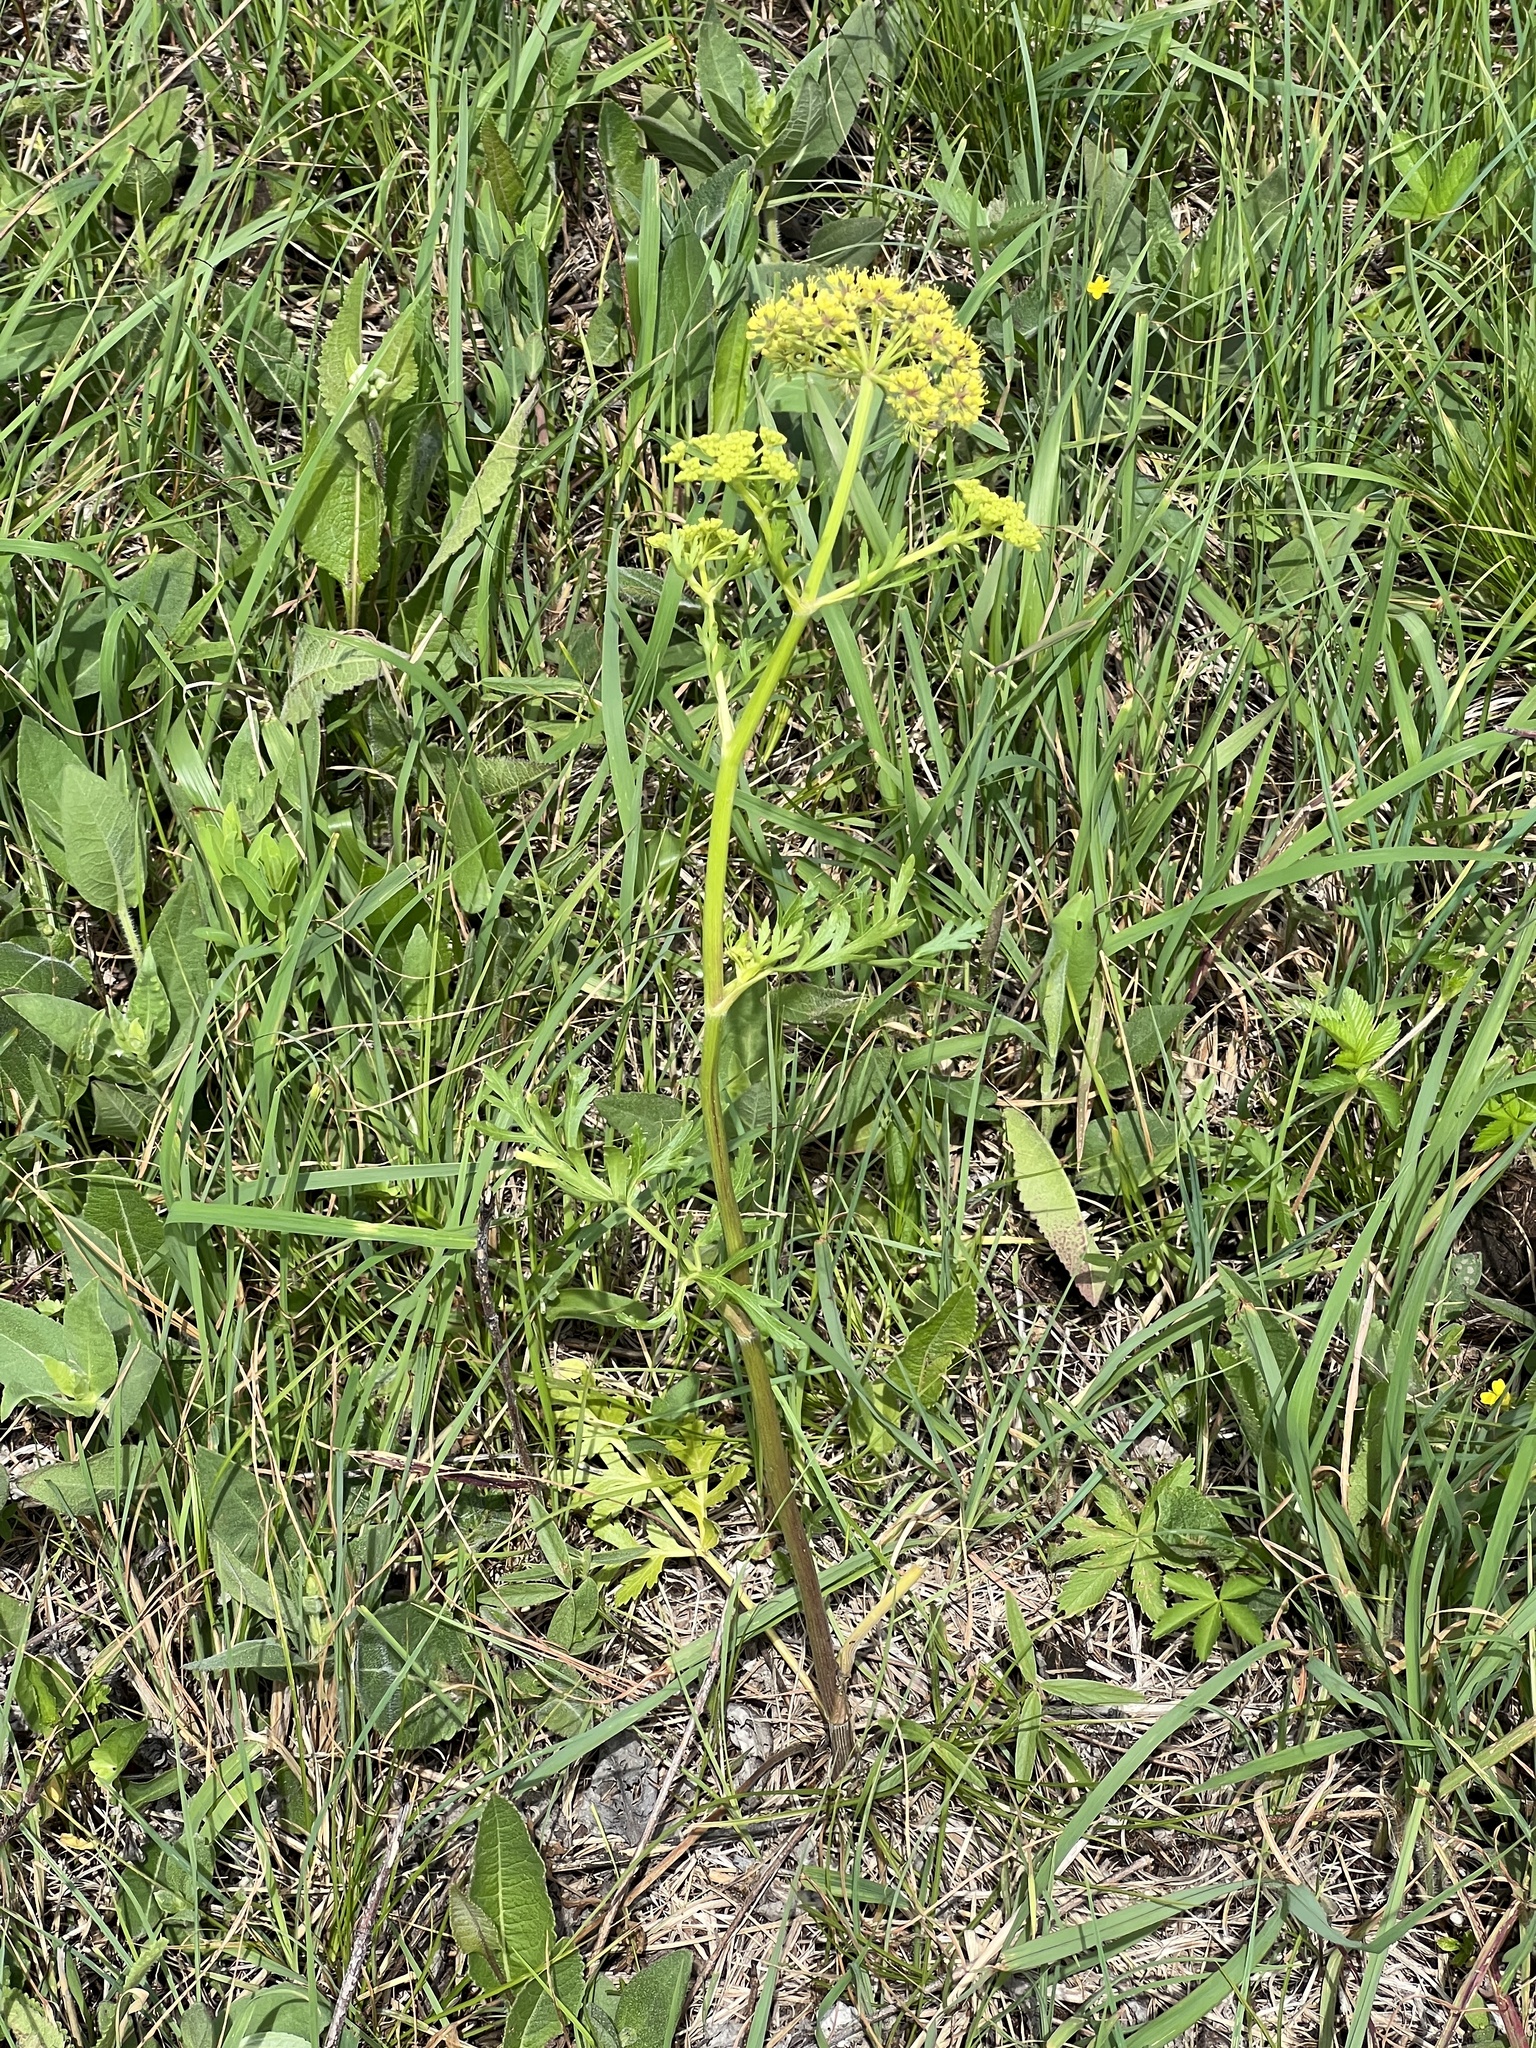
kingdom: Plantae
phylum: Tracheophyta
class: Magnoliopsida
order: Apiales
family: Apiaceae
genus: Polytaenia
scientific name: Polytaenia nuttallii
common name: Prairie-parsley
